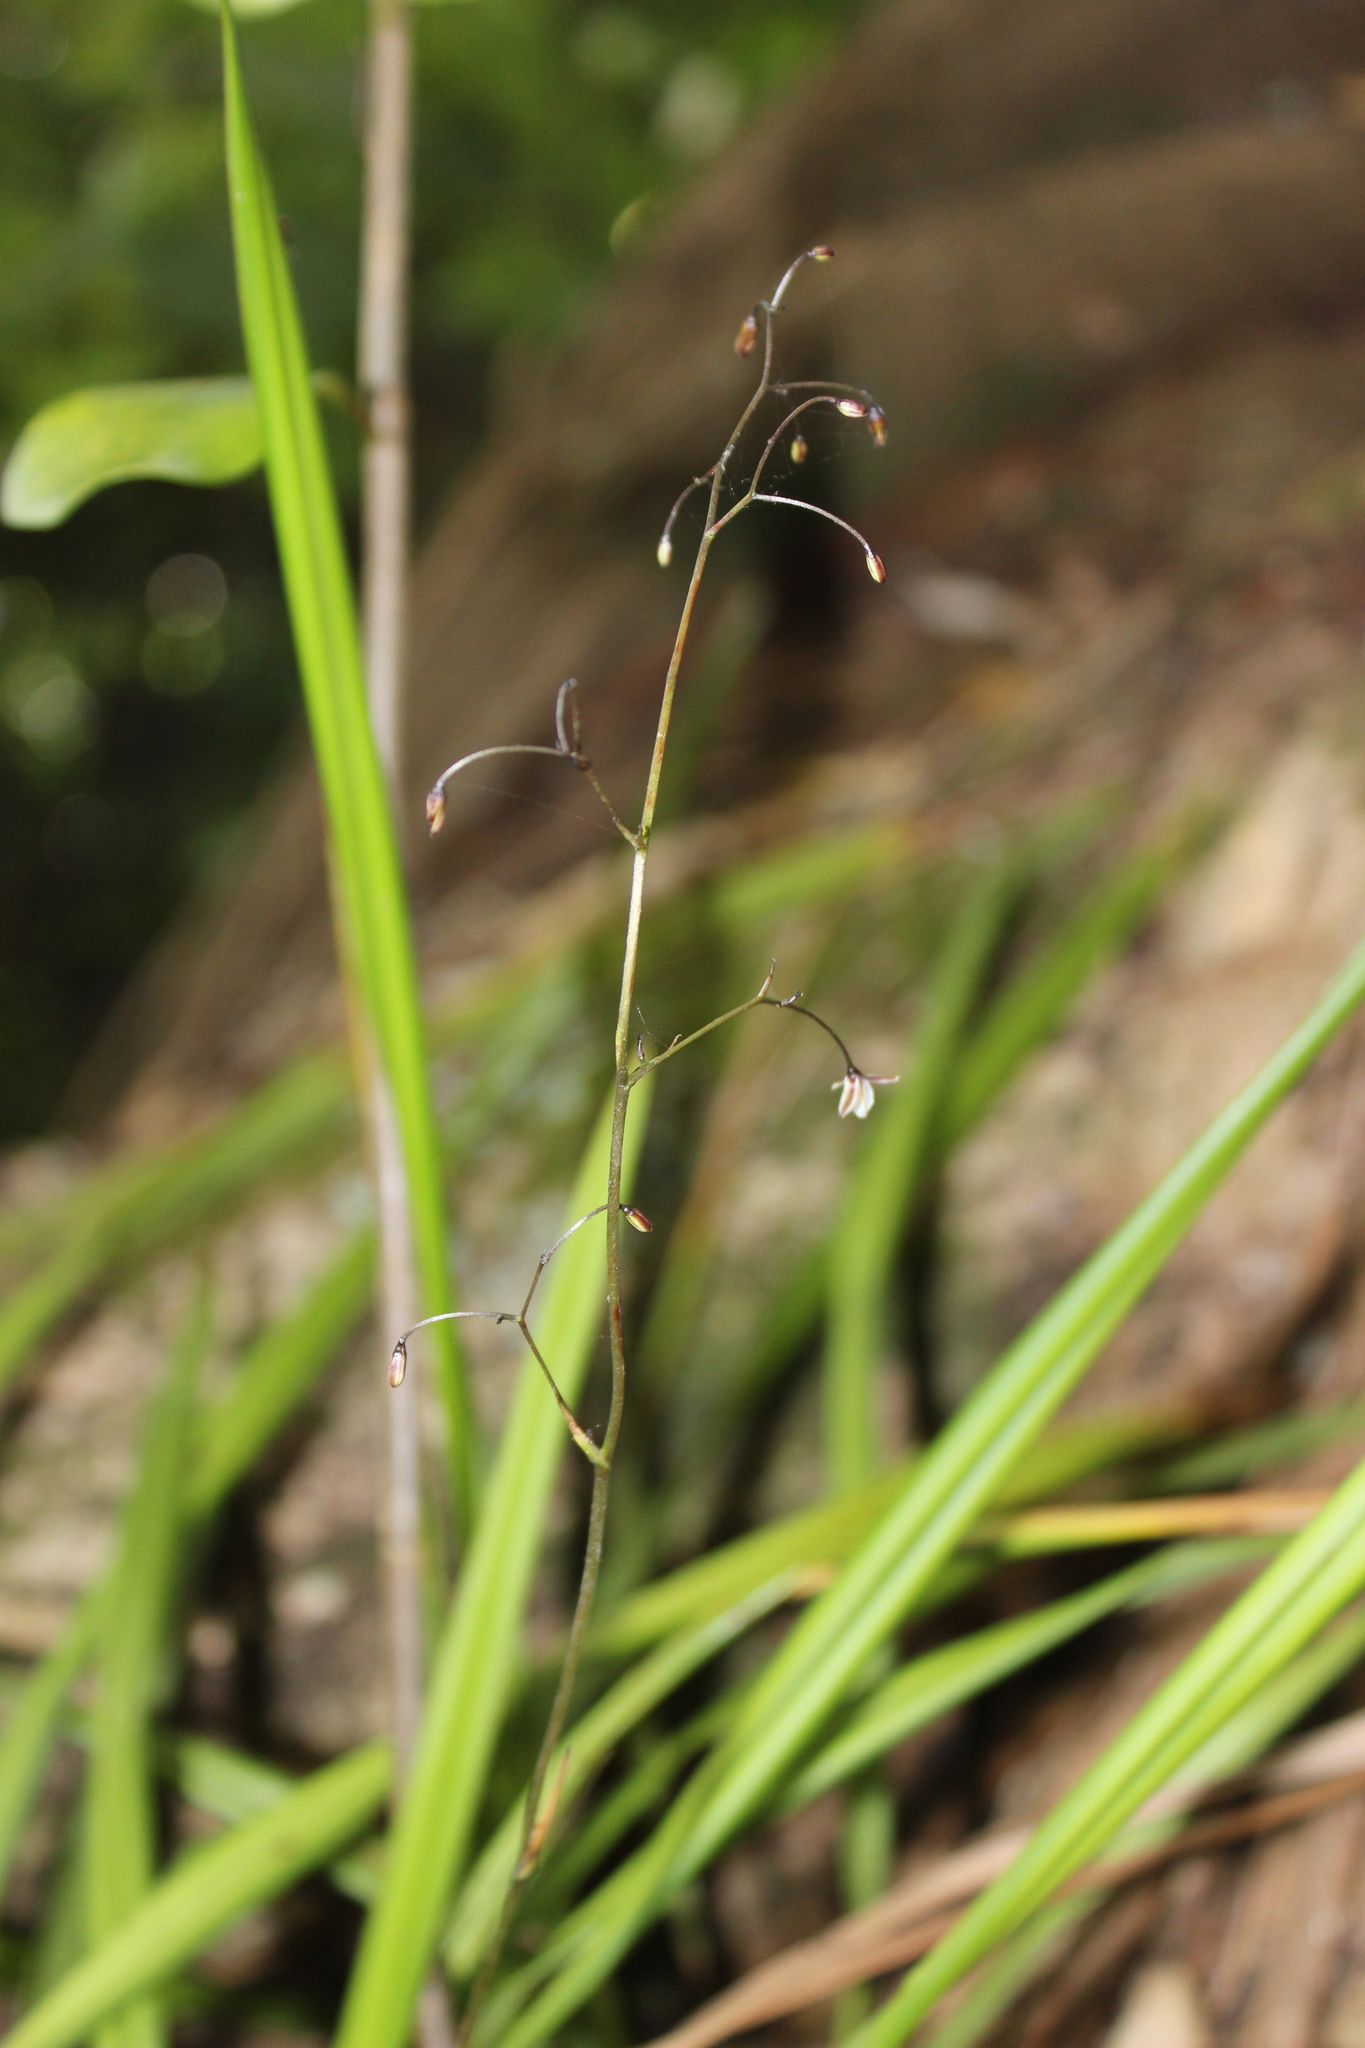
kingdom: Plantae
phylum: Tracheophyta
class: Liliopsida
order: Asparagales
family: Asphodelaceae
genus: Dianella
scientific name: Dianella nigra
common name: New zealand-blueberry
